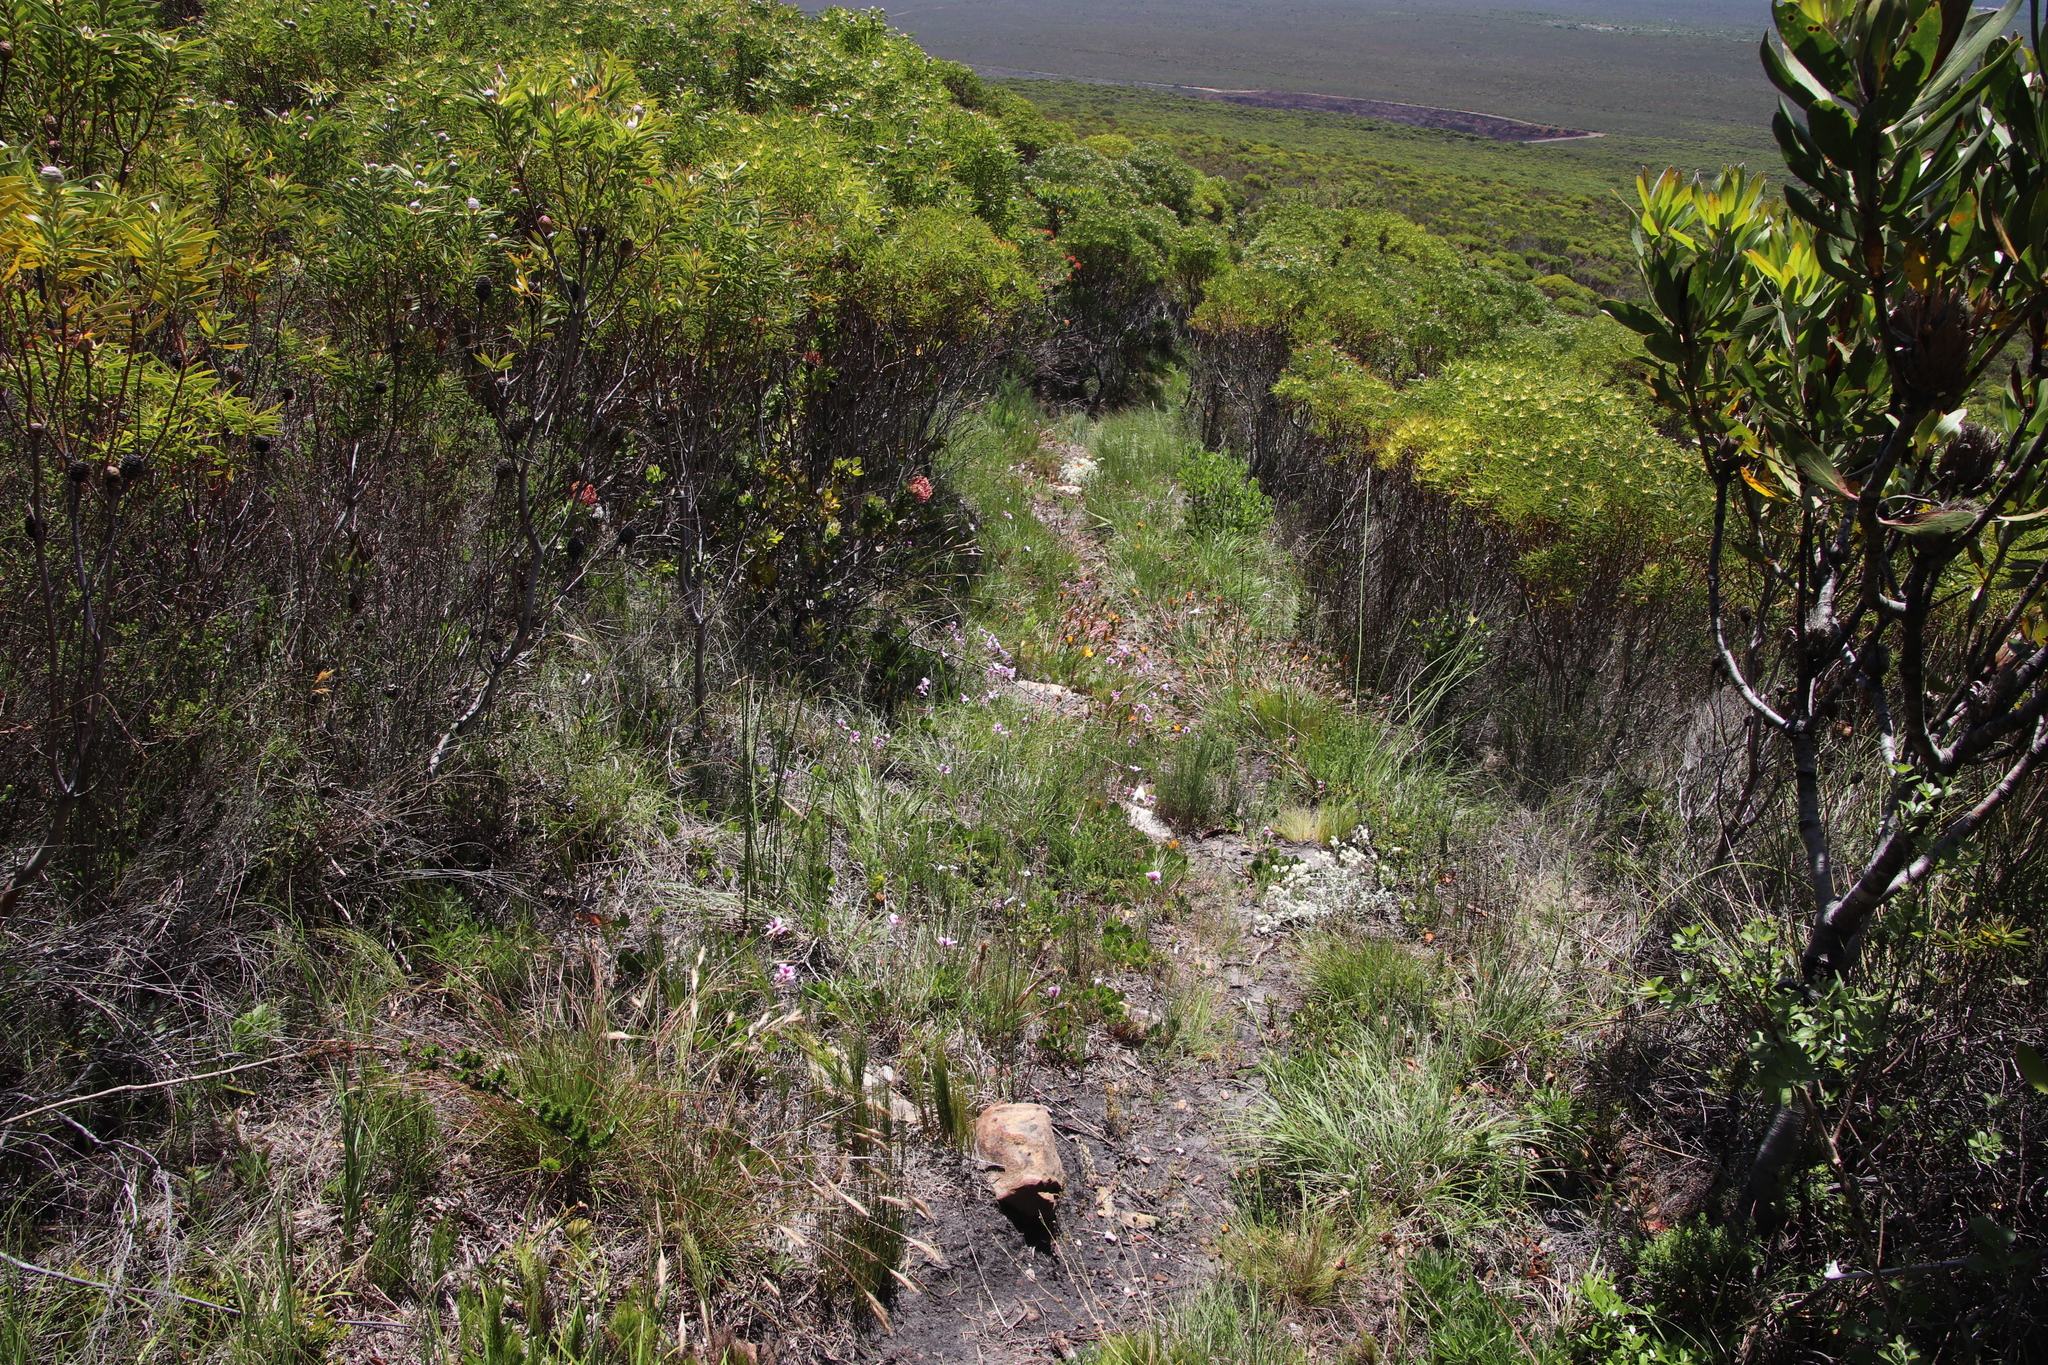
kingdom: Plantae
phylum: Tracheophyta
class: Magnoliopsida
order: Geraniales
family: Geraniaceae
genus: Pelargonium
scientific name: Pelargonium elegans
